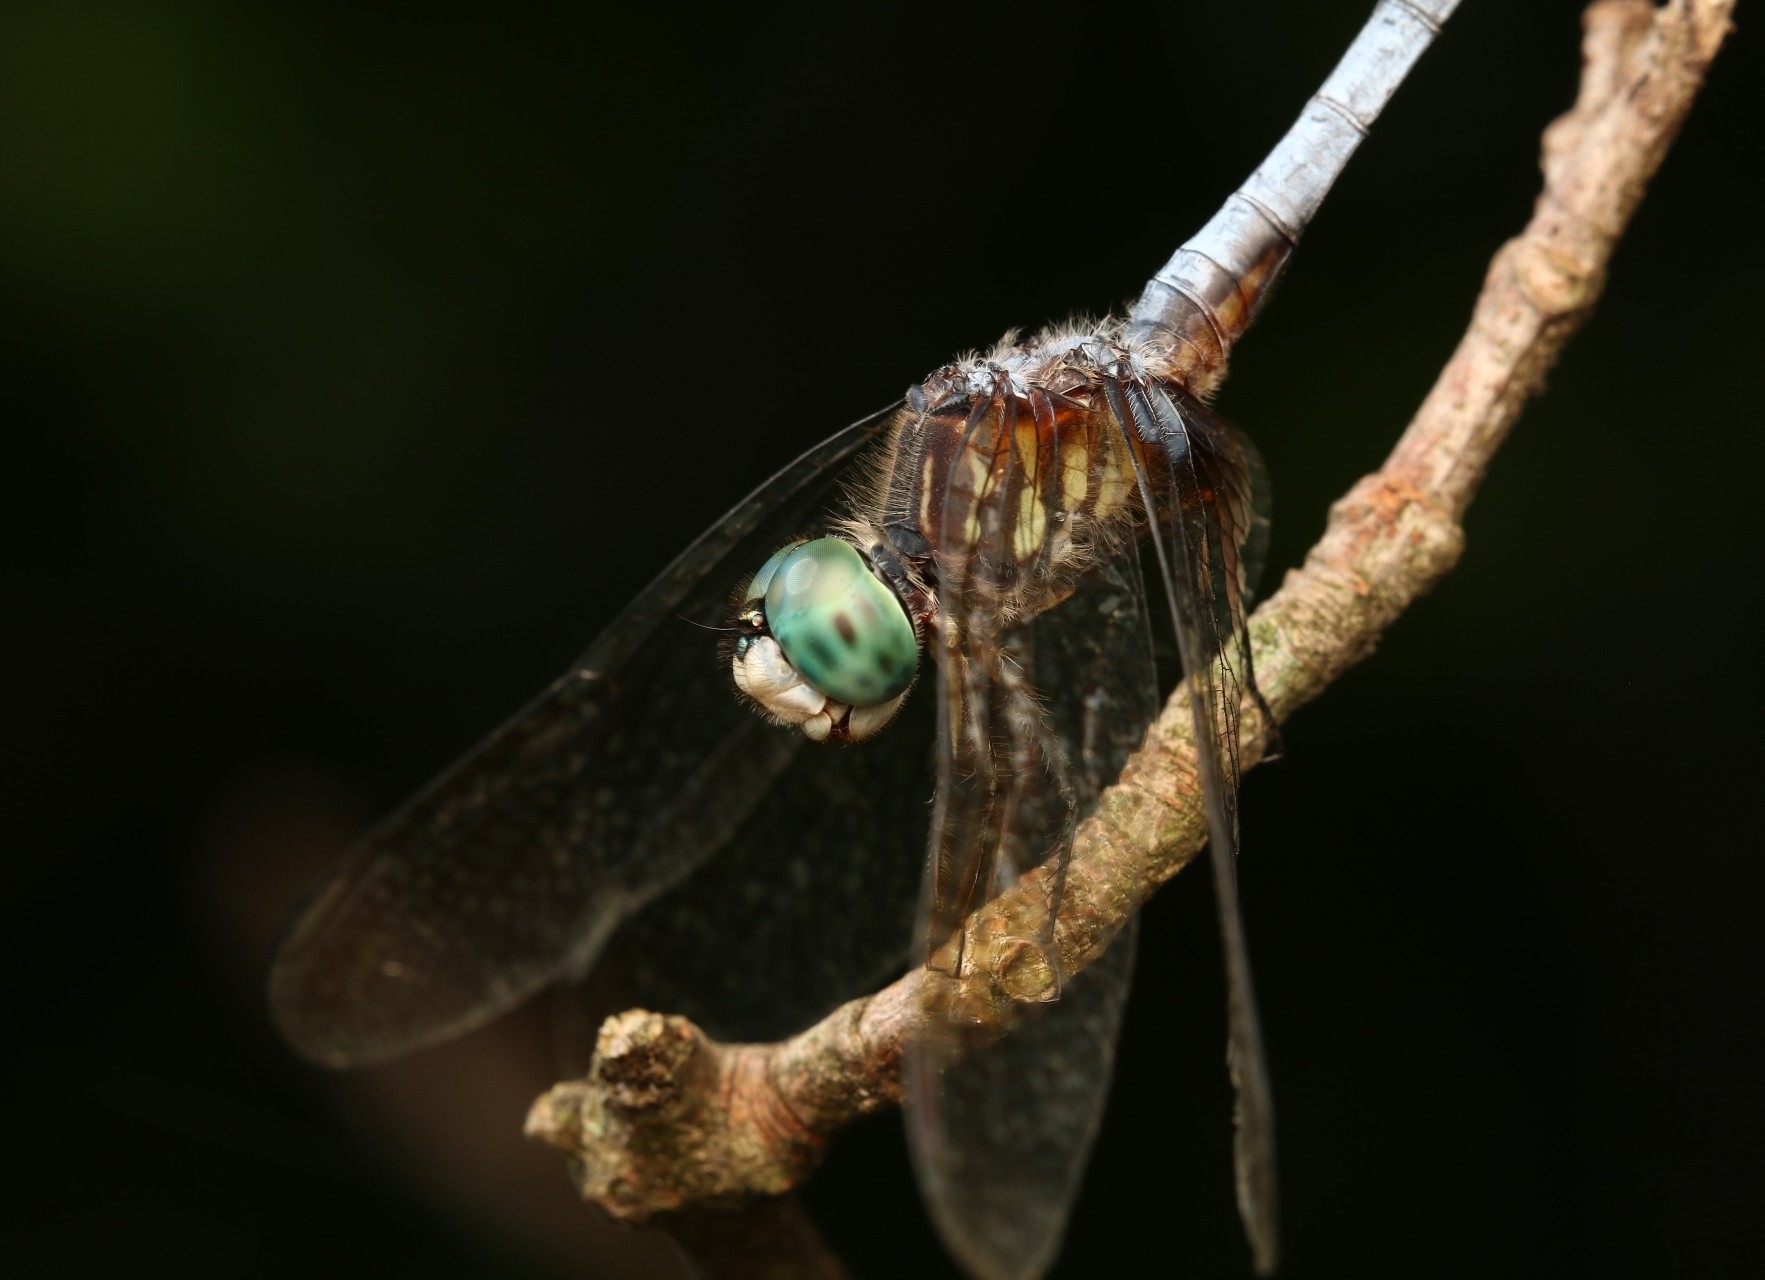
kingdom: Animalia
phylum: Arthropoda
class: Insecta
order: Odonata
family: Libellulidae
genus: Pachydiplax
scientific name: Pachydiplax longipennis
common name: Blue dasher
